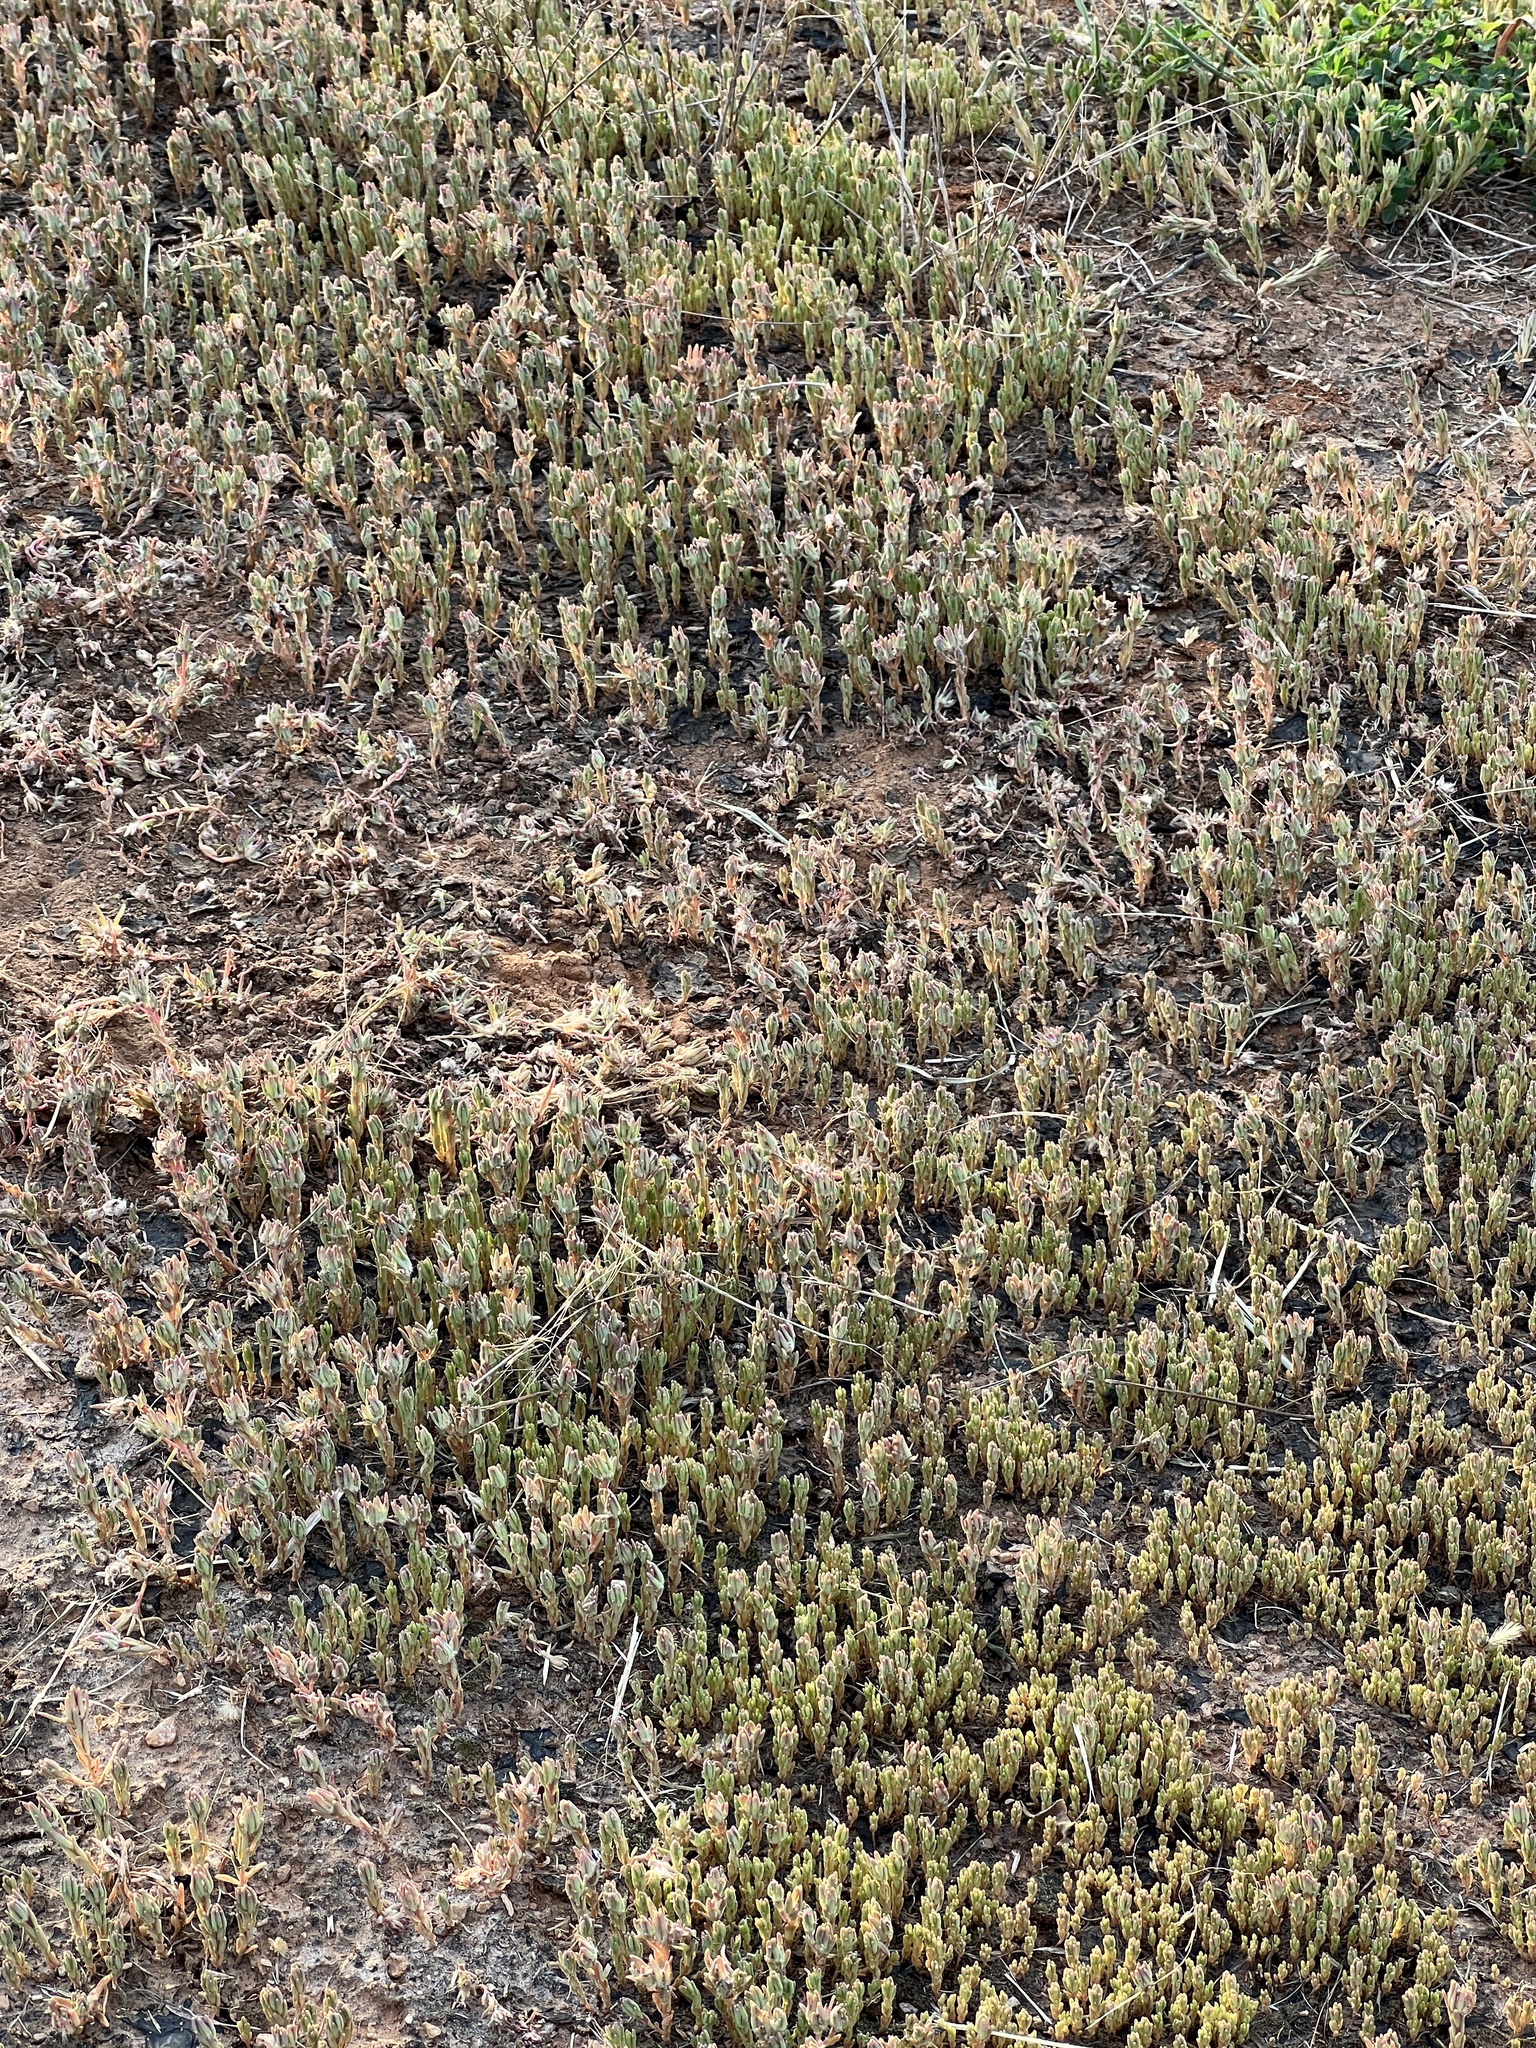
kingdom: Plantae
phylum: Tracheophyta
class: Magnoliopsida
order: Caryophyllales
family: Portulacaceae
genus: Portulaca
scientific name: Portulaca pilosa
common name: Kiss me quick
